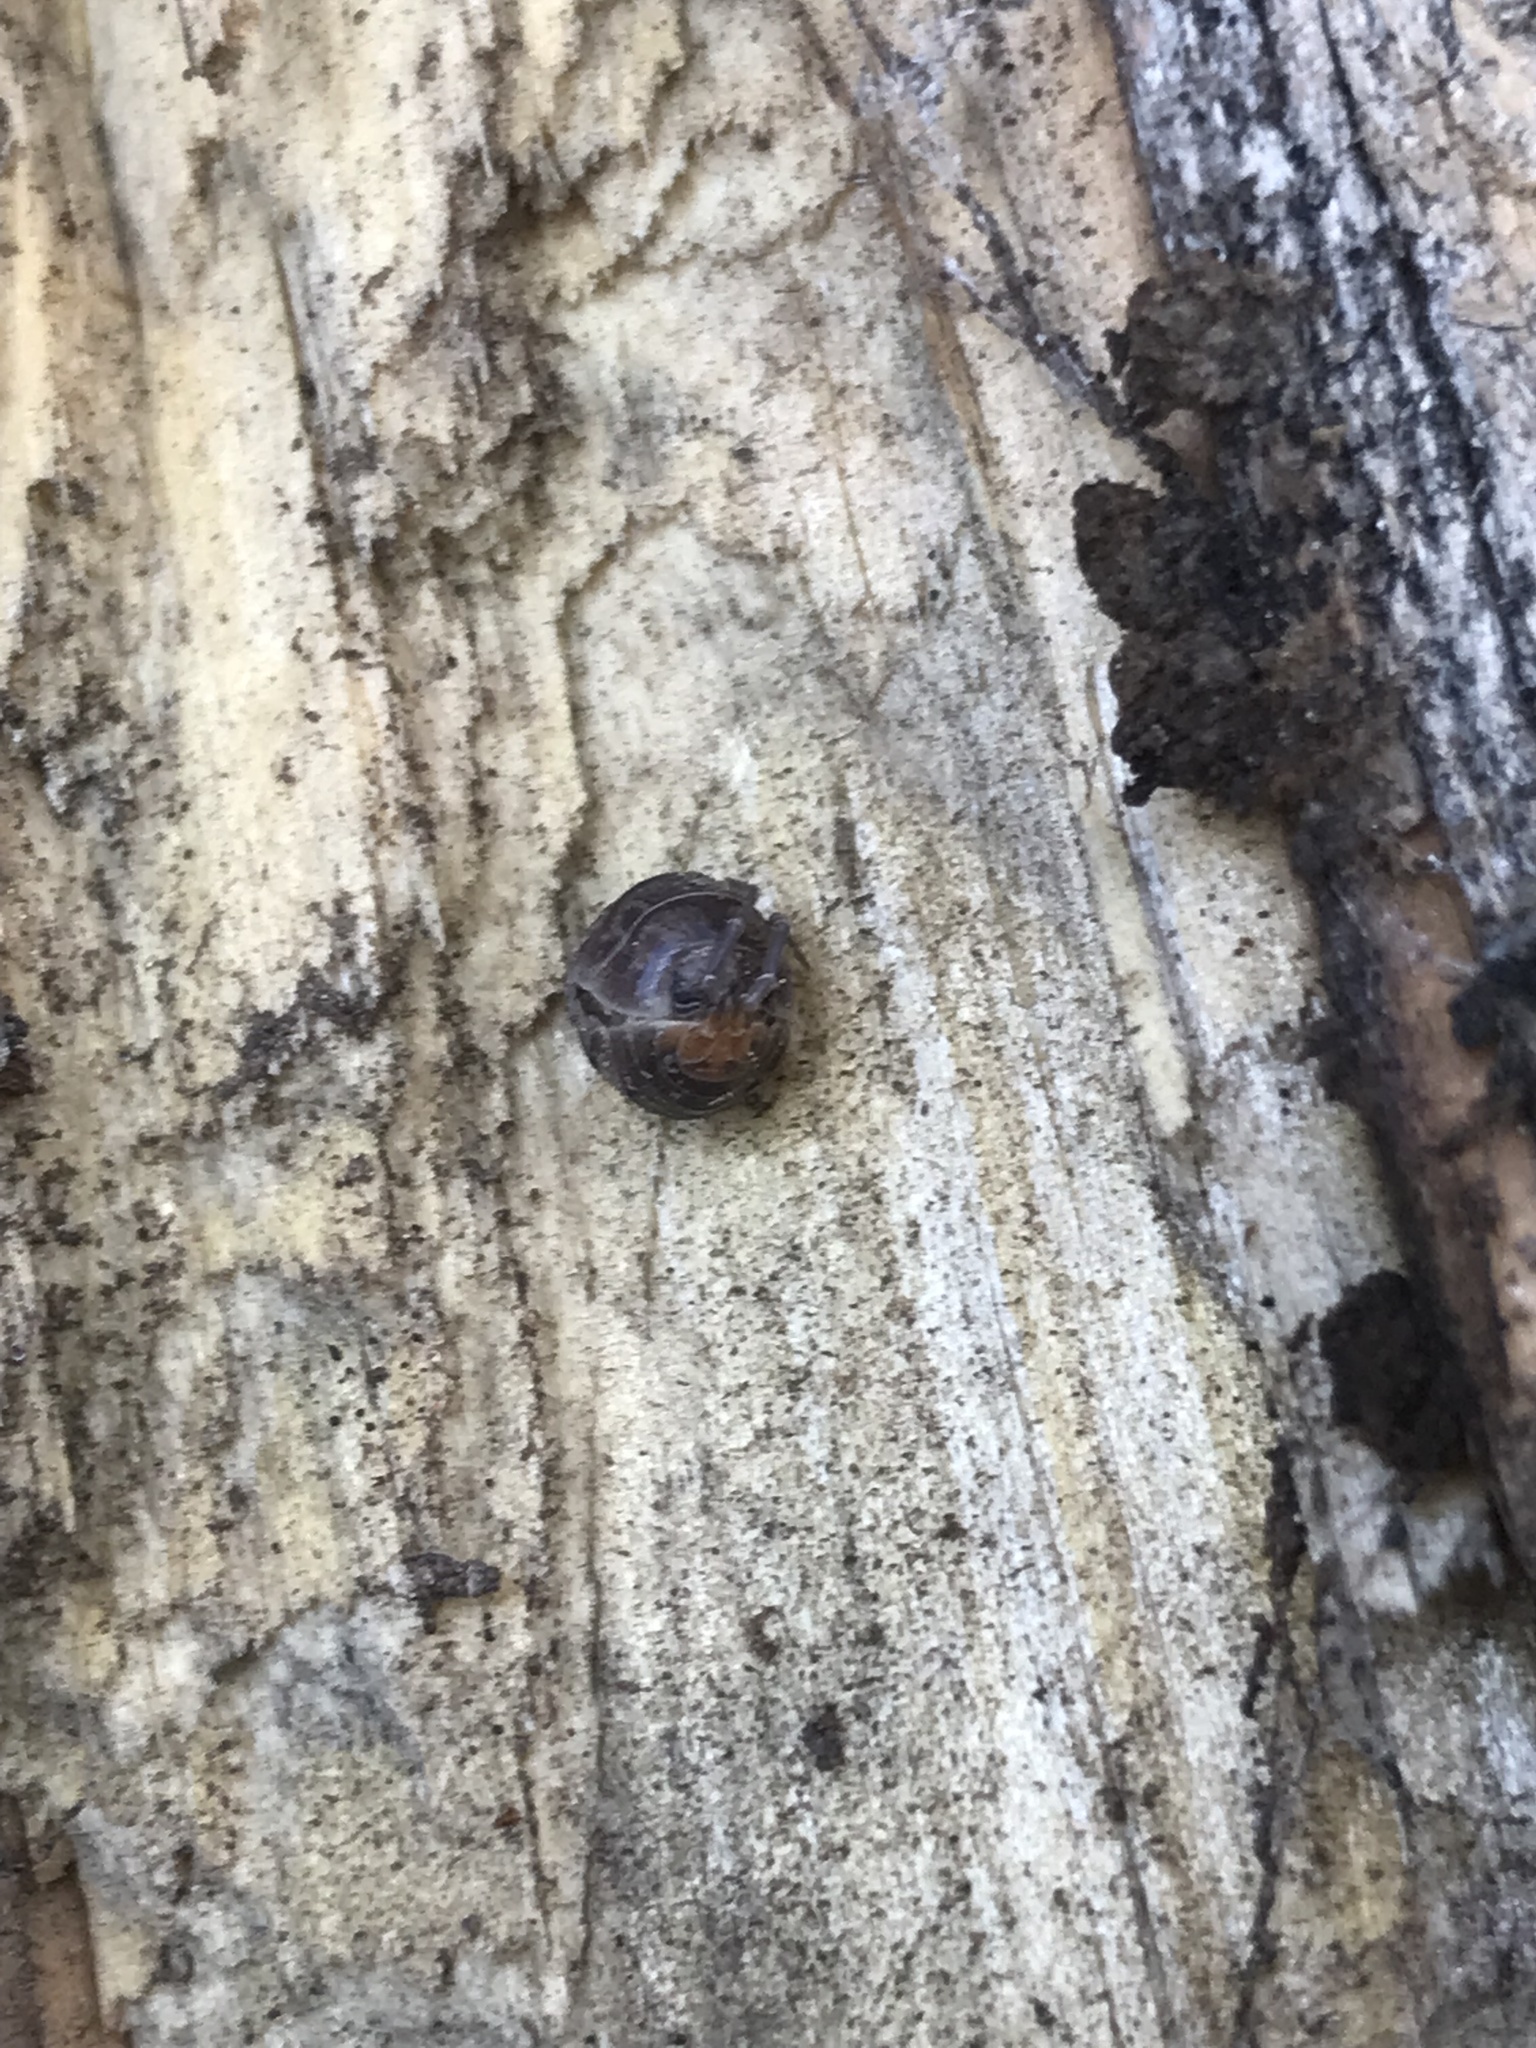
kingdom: Animalia
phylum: Arthropoda
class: Malacostraca
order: Isopoda
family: Cylisticidae
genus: Cylisticus
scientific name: Cylisticus convexus
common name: Curly woodlouse
